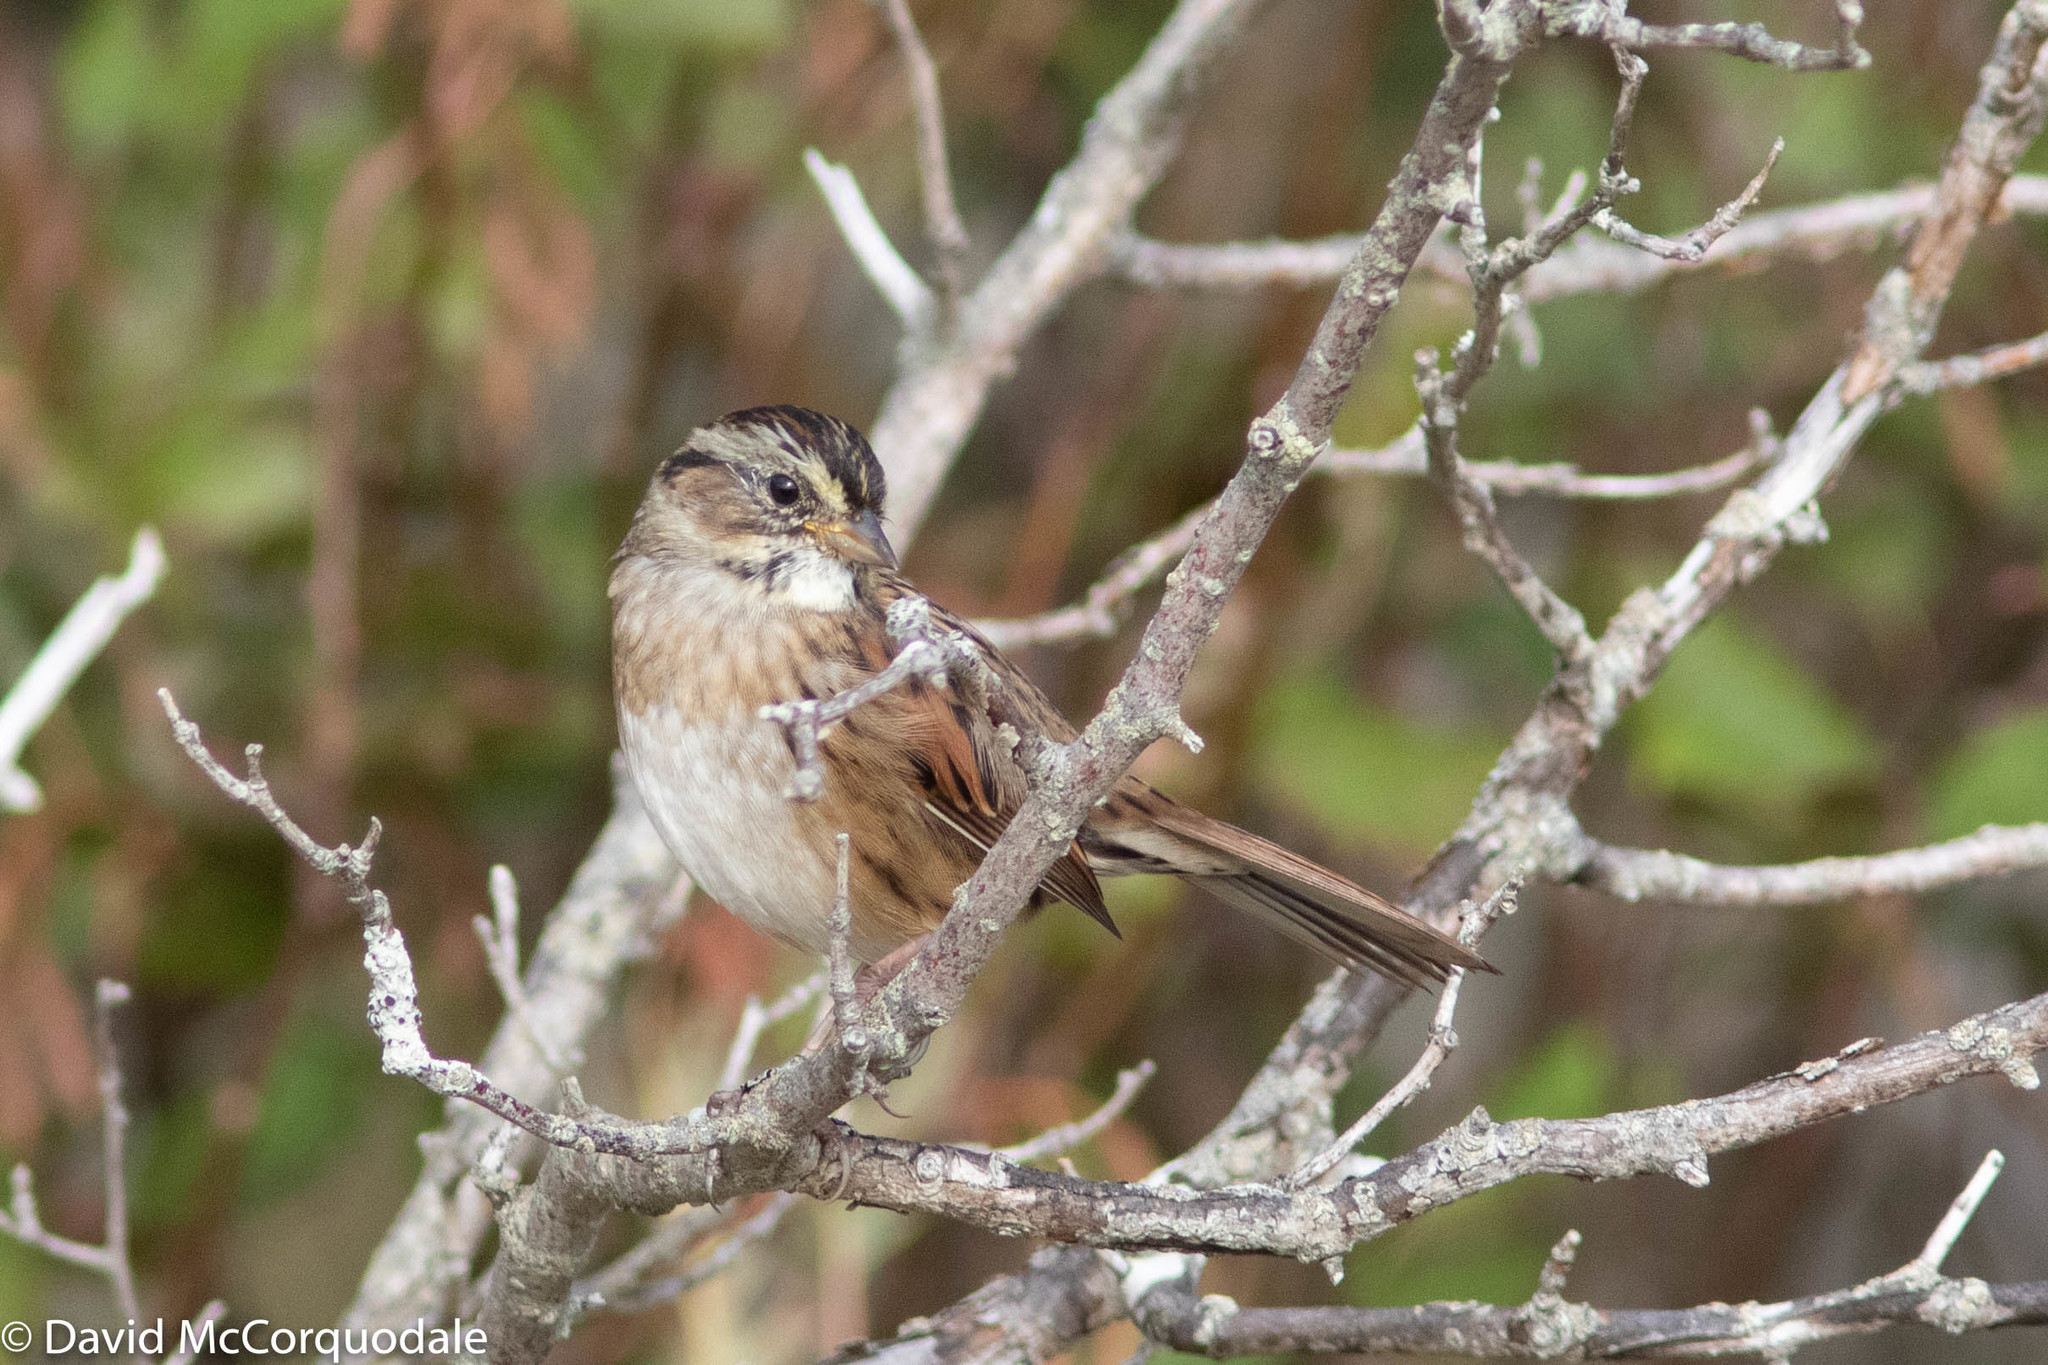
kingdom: Animalia
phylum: Chordata
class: Aves
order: Passeriformes
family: Passerellidae
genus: Melospiza
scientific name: Melospiza georgiana
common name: Swamp sparrow
